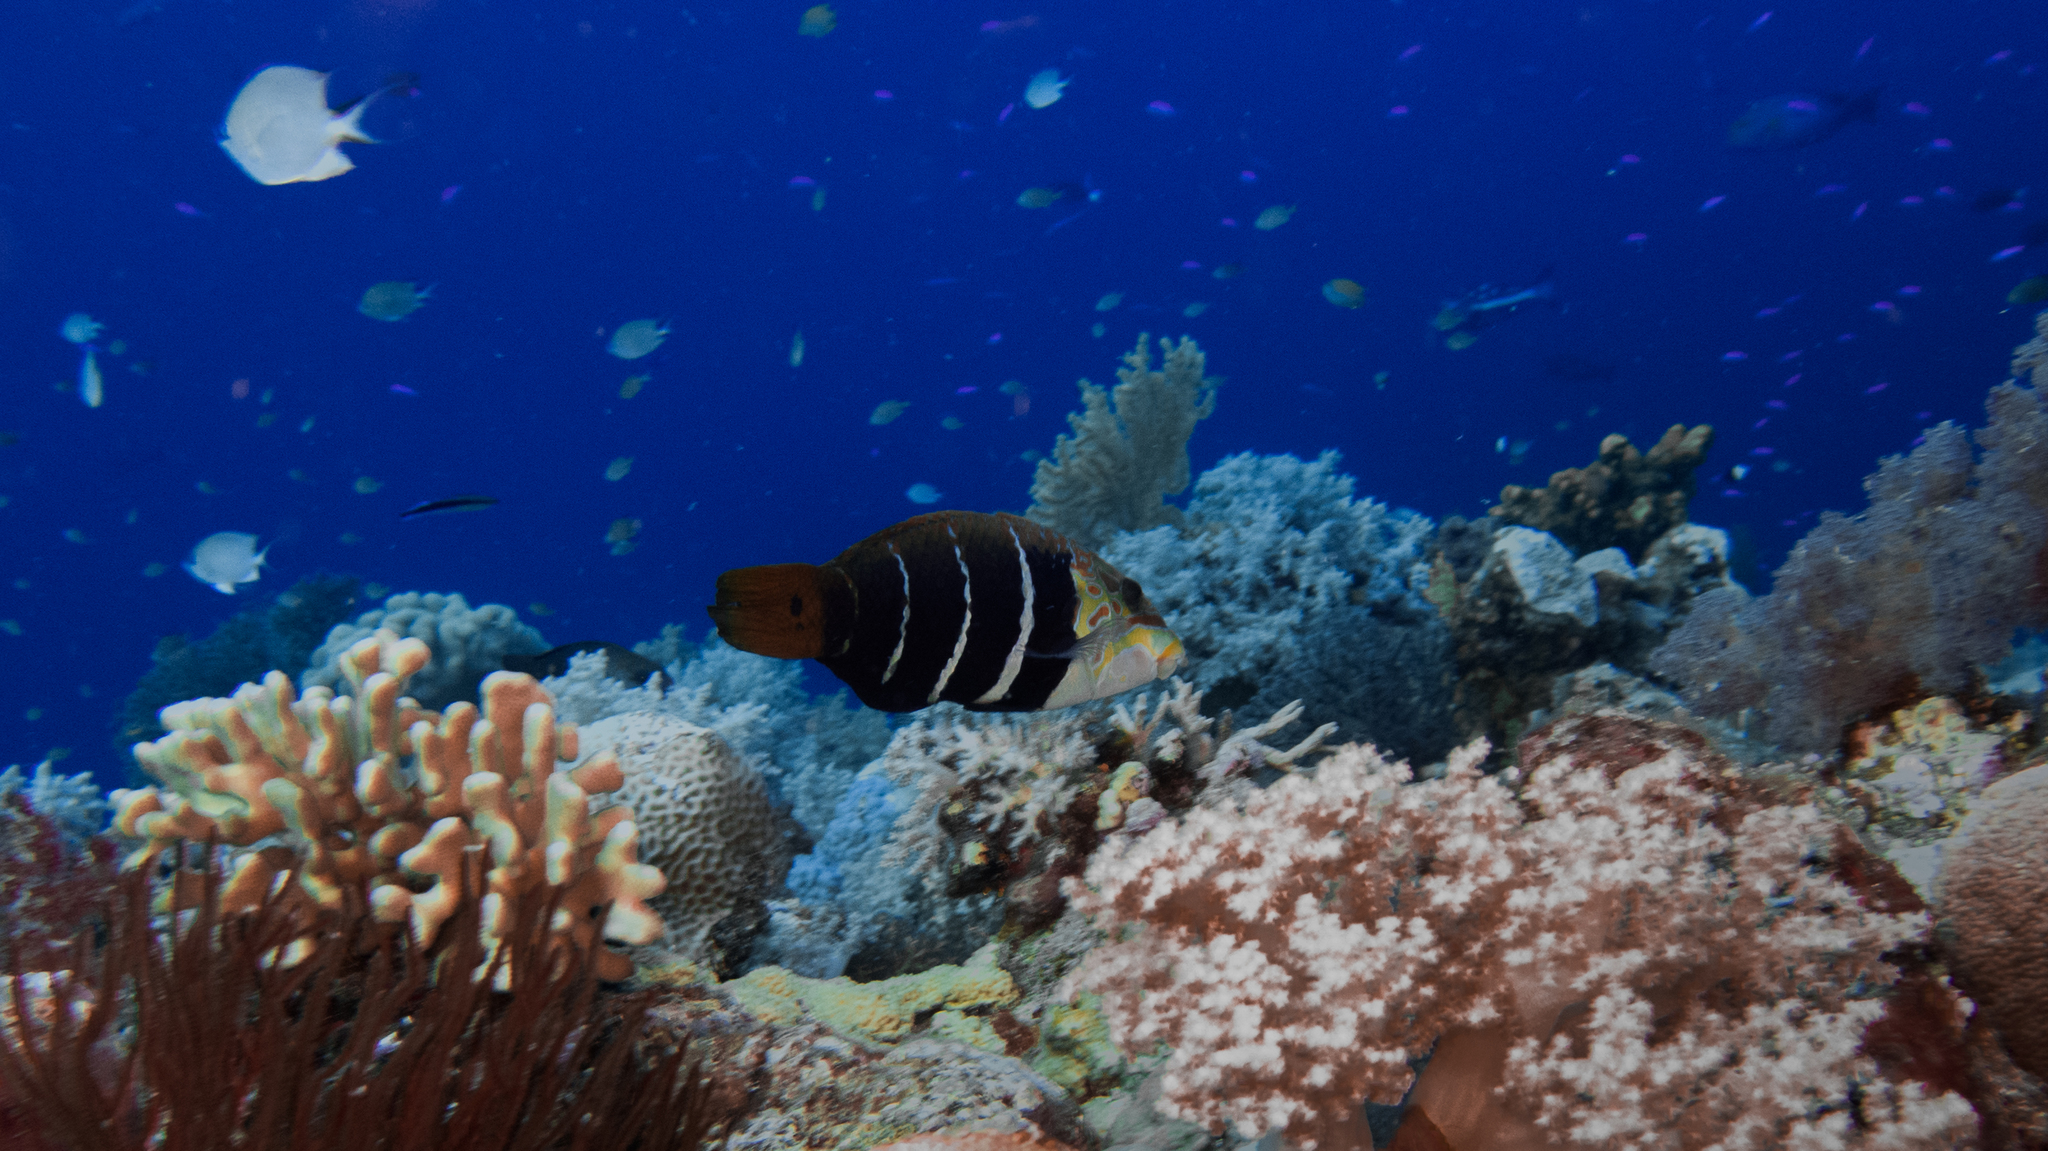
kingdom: Animalia
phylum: Chordata
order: Perciformes
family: Labridae
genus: Hemigymnus
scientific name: Hemigymnus fasciatus
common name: Barred thicklip
